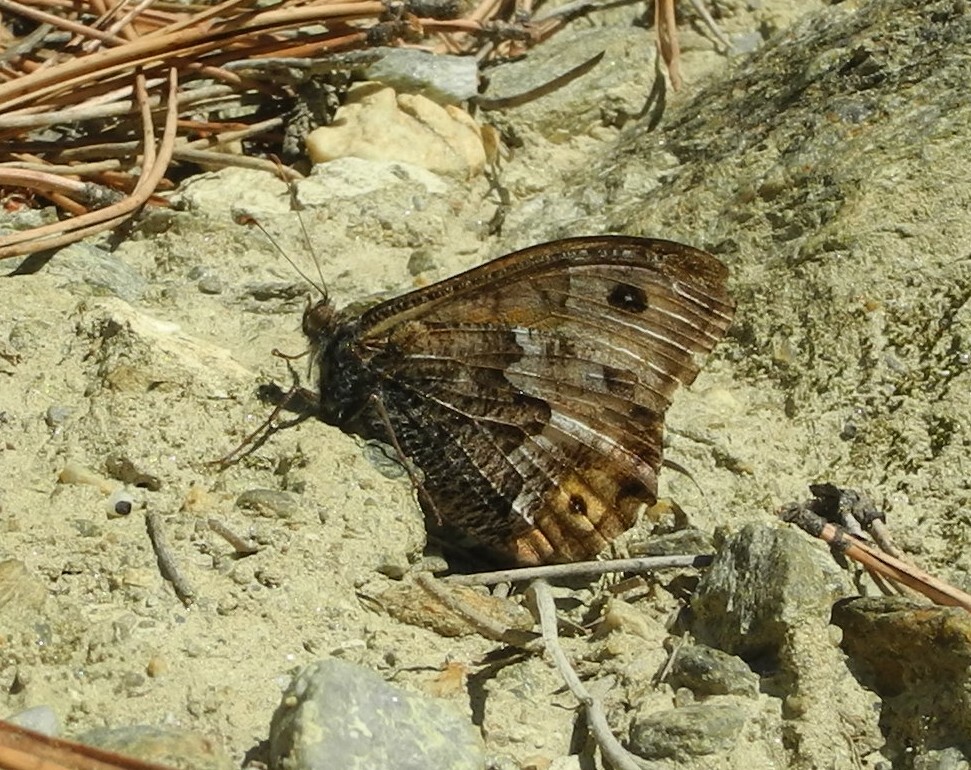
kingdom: Animalia
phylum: Arthropoda
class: Insecta
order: Lepidoptera
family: Nymphalidae
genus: Hipparchia
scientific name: Hipparchia semele
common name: Grayling
